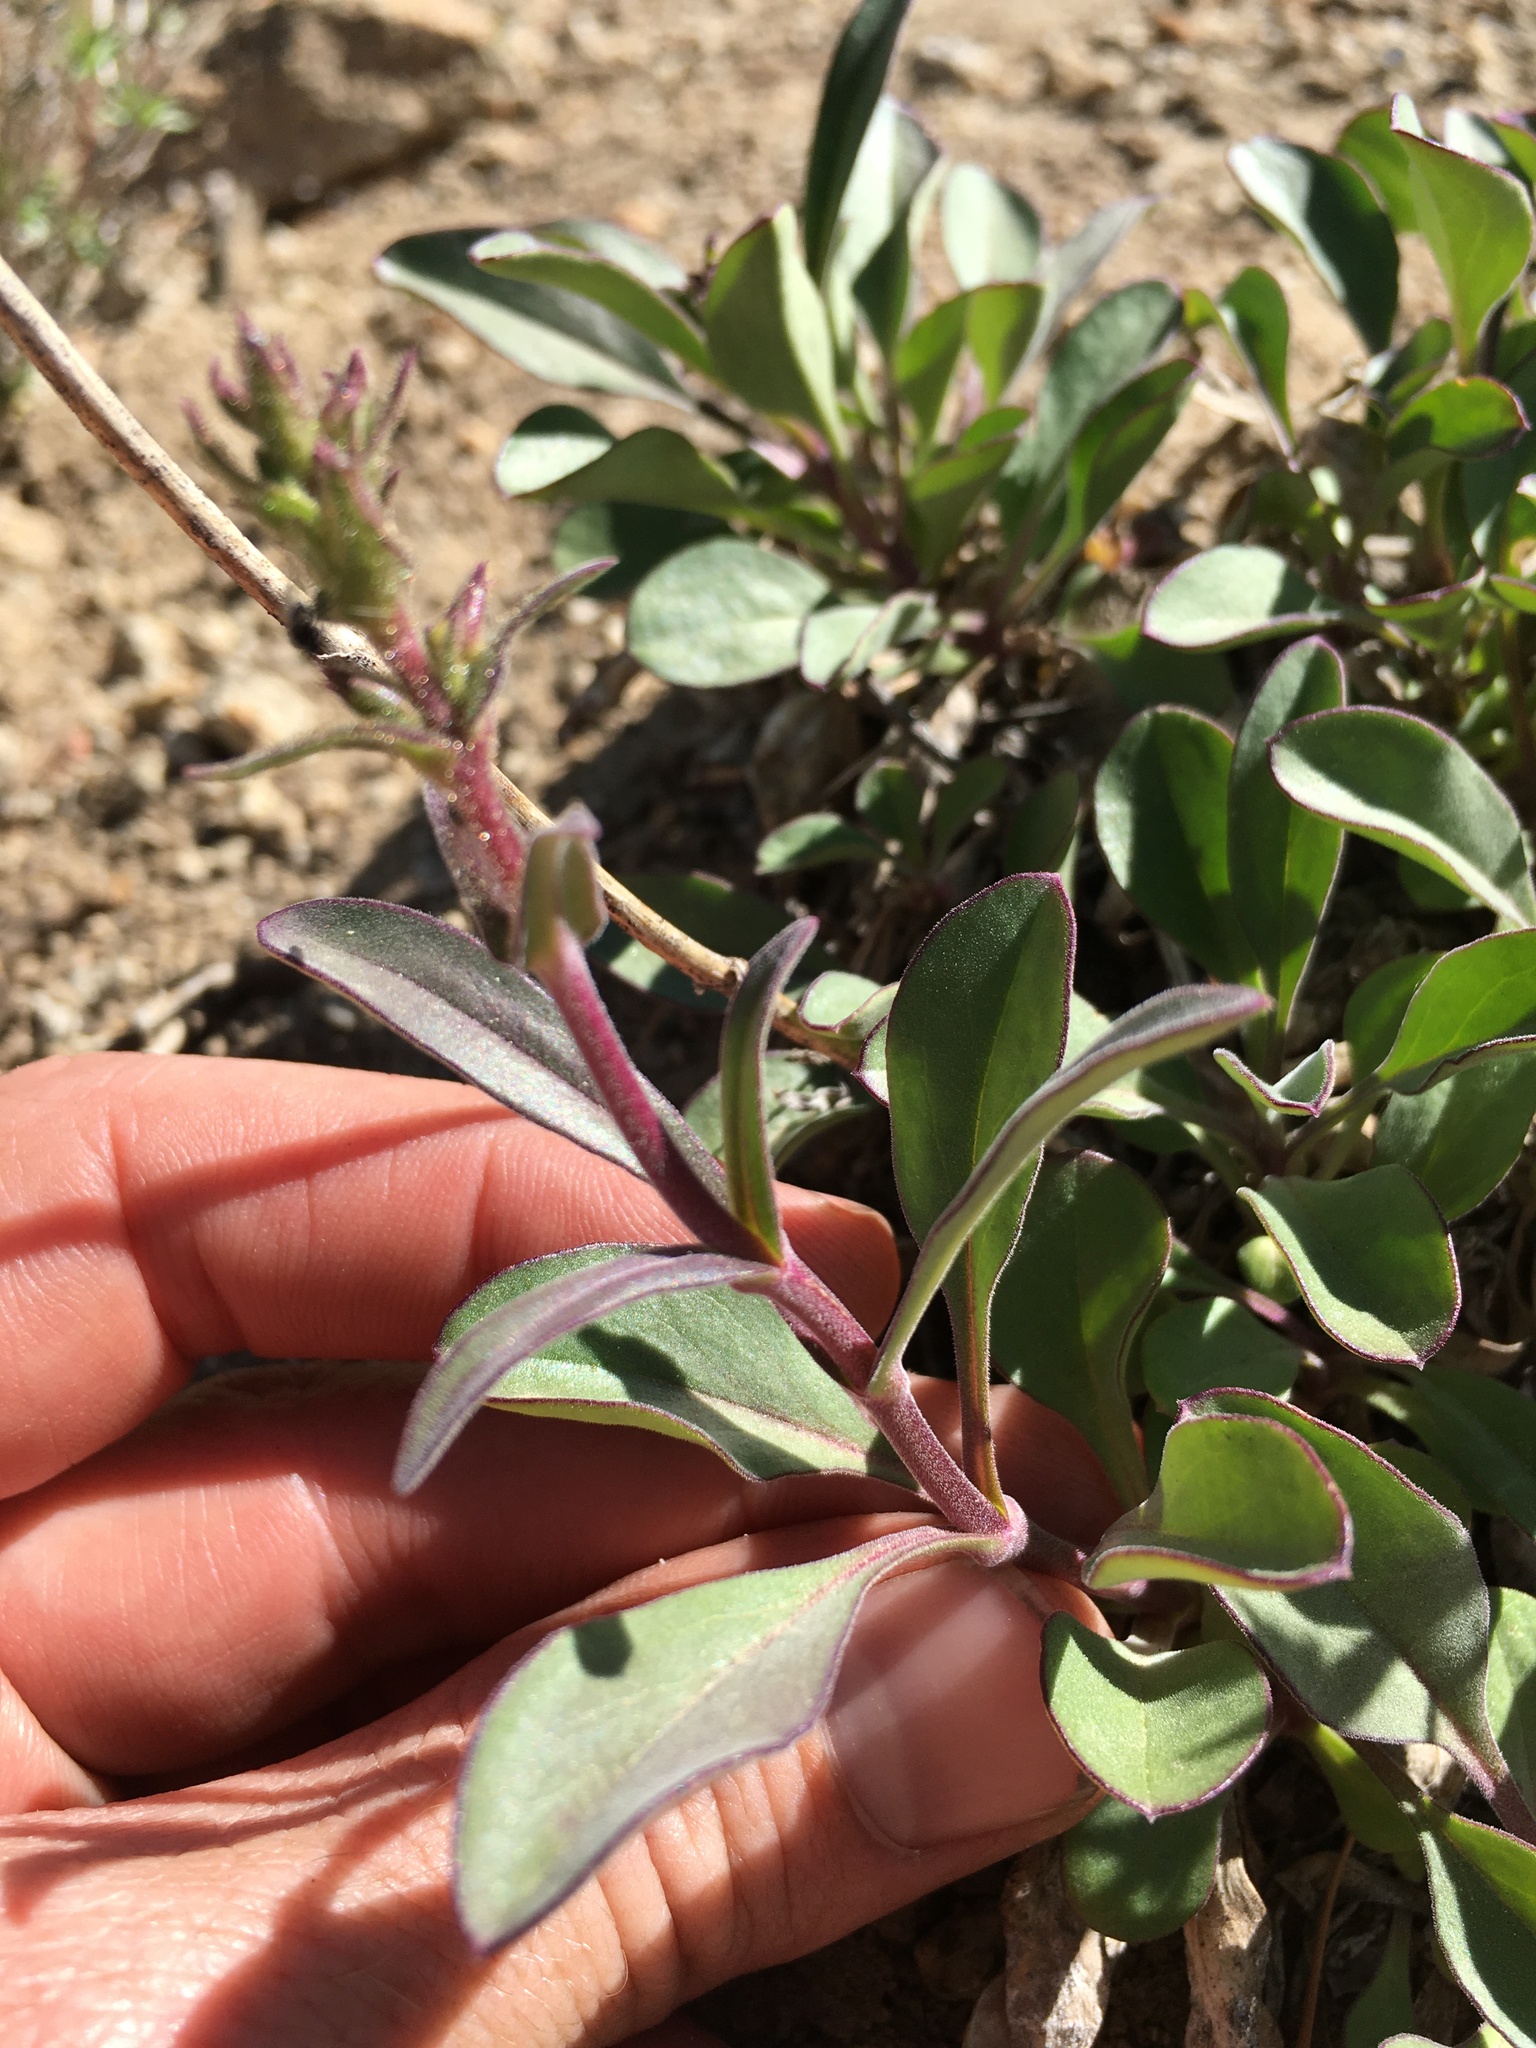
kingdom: Plantae
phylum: Tracheophyta
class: Magnoliopsida
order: Lamiales
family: Plantaginaceae
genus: Penstemon
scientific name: Penstemon papillatus
